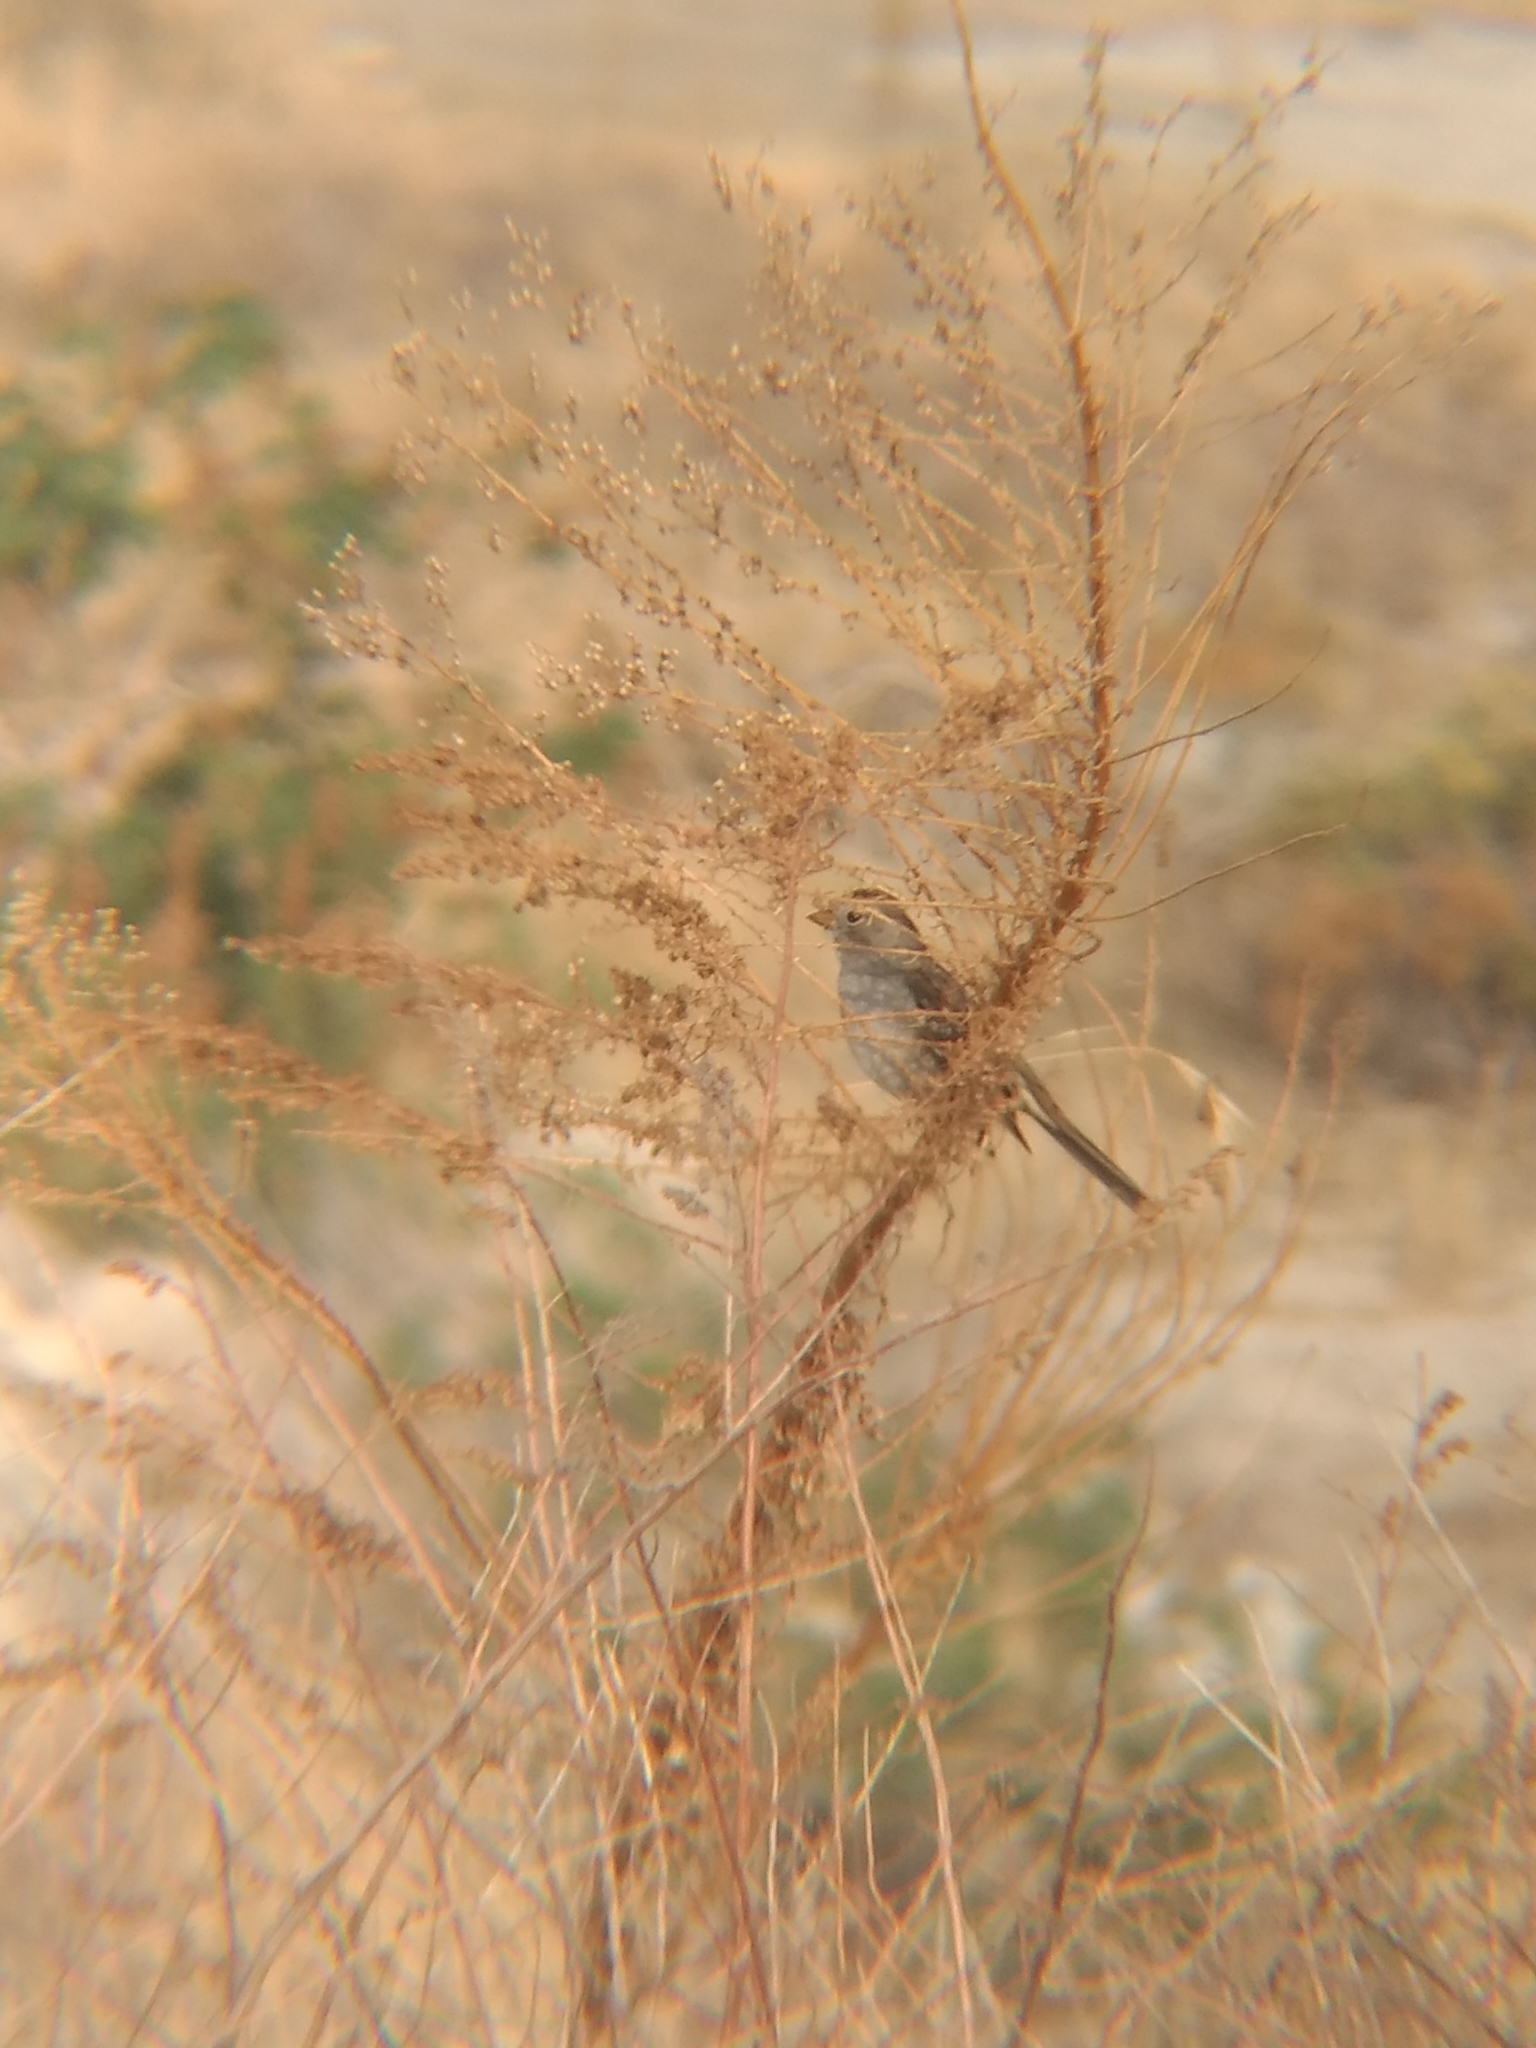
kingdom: Animalia
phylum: Chordata
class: Aves
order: Passeriformes
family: Passerellidae
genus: Zonotrichia
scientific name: Zonotrichia leucophrys
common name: White-crowned sparrow
